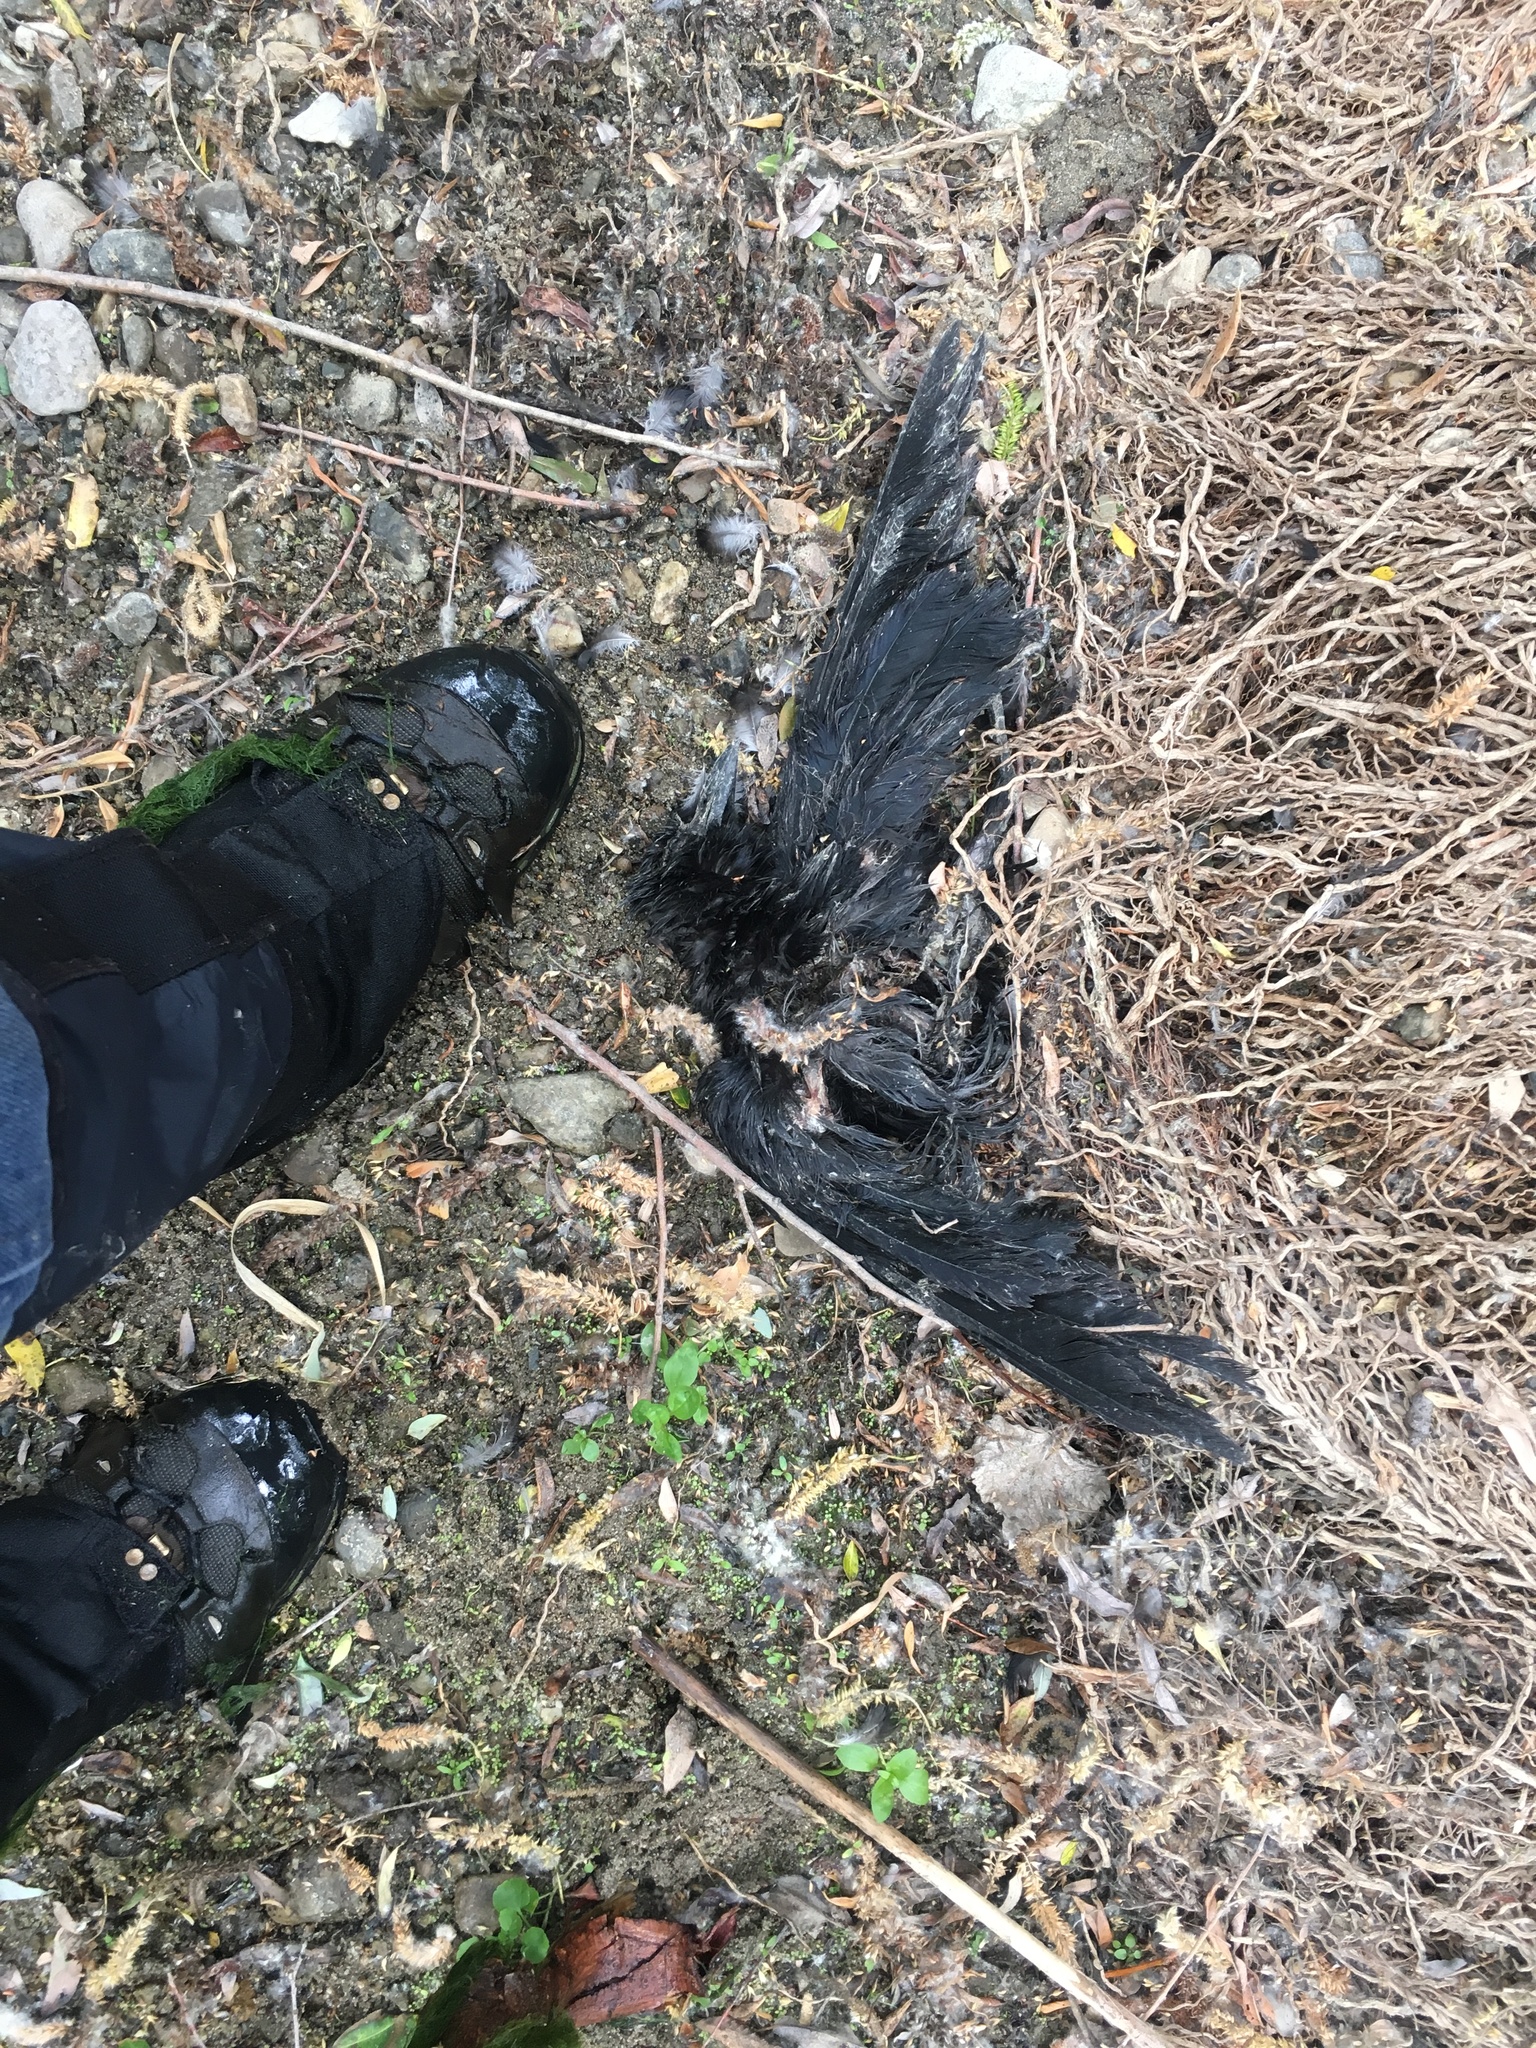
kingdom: Animalia
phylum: Chordata
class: Aves
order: Passeriformes
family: Corvidae
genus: Corvus
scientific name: Corvus brachyrhynchos
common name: American crow
